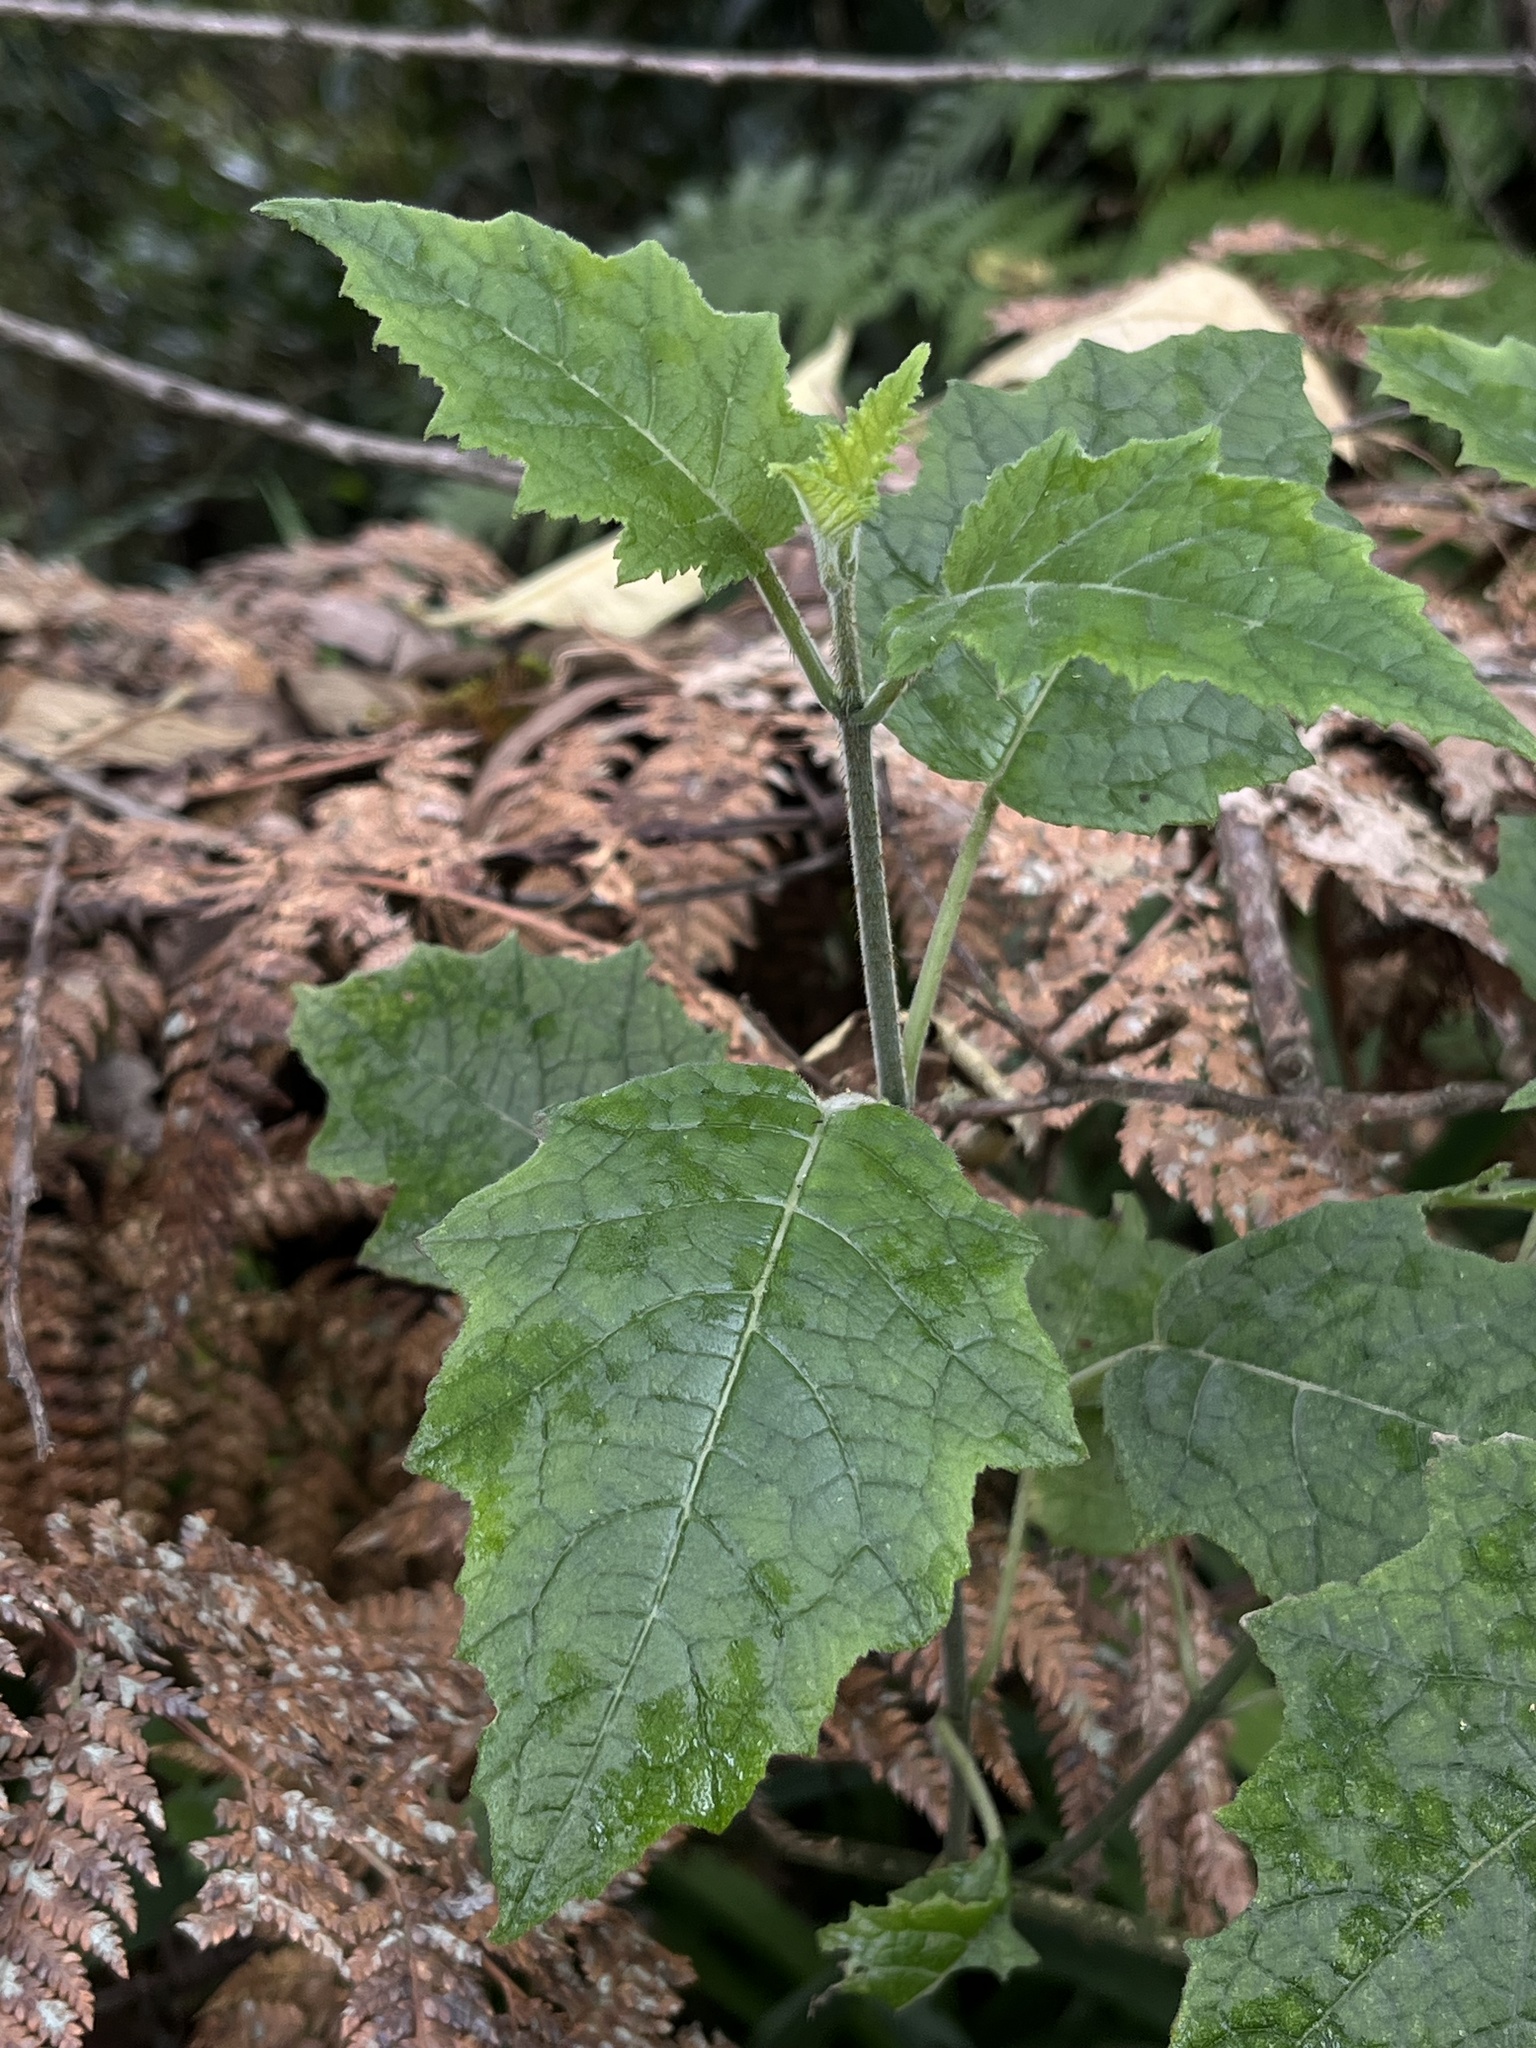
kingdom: Plantae
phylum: Tracheophyta
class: Magnoliopsida
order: Cornales
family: Loasaceae
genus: Nasa
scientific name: Nasa campaniflora
